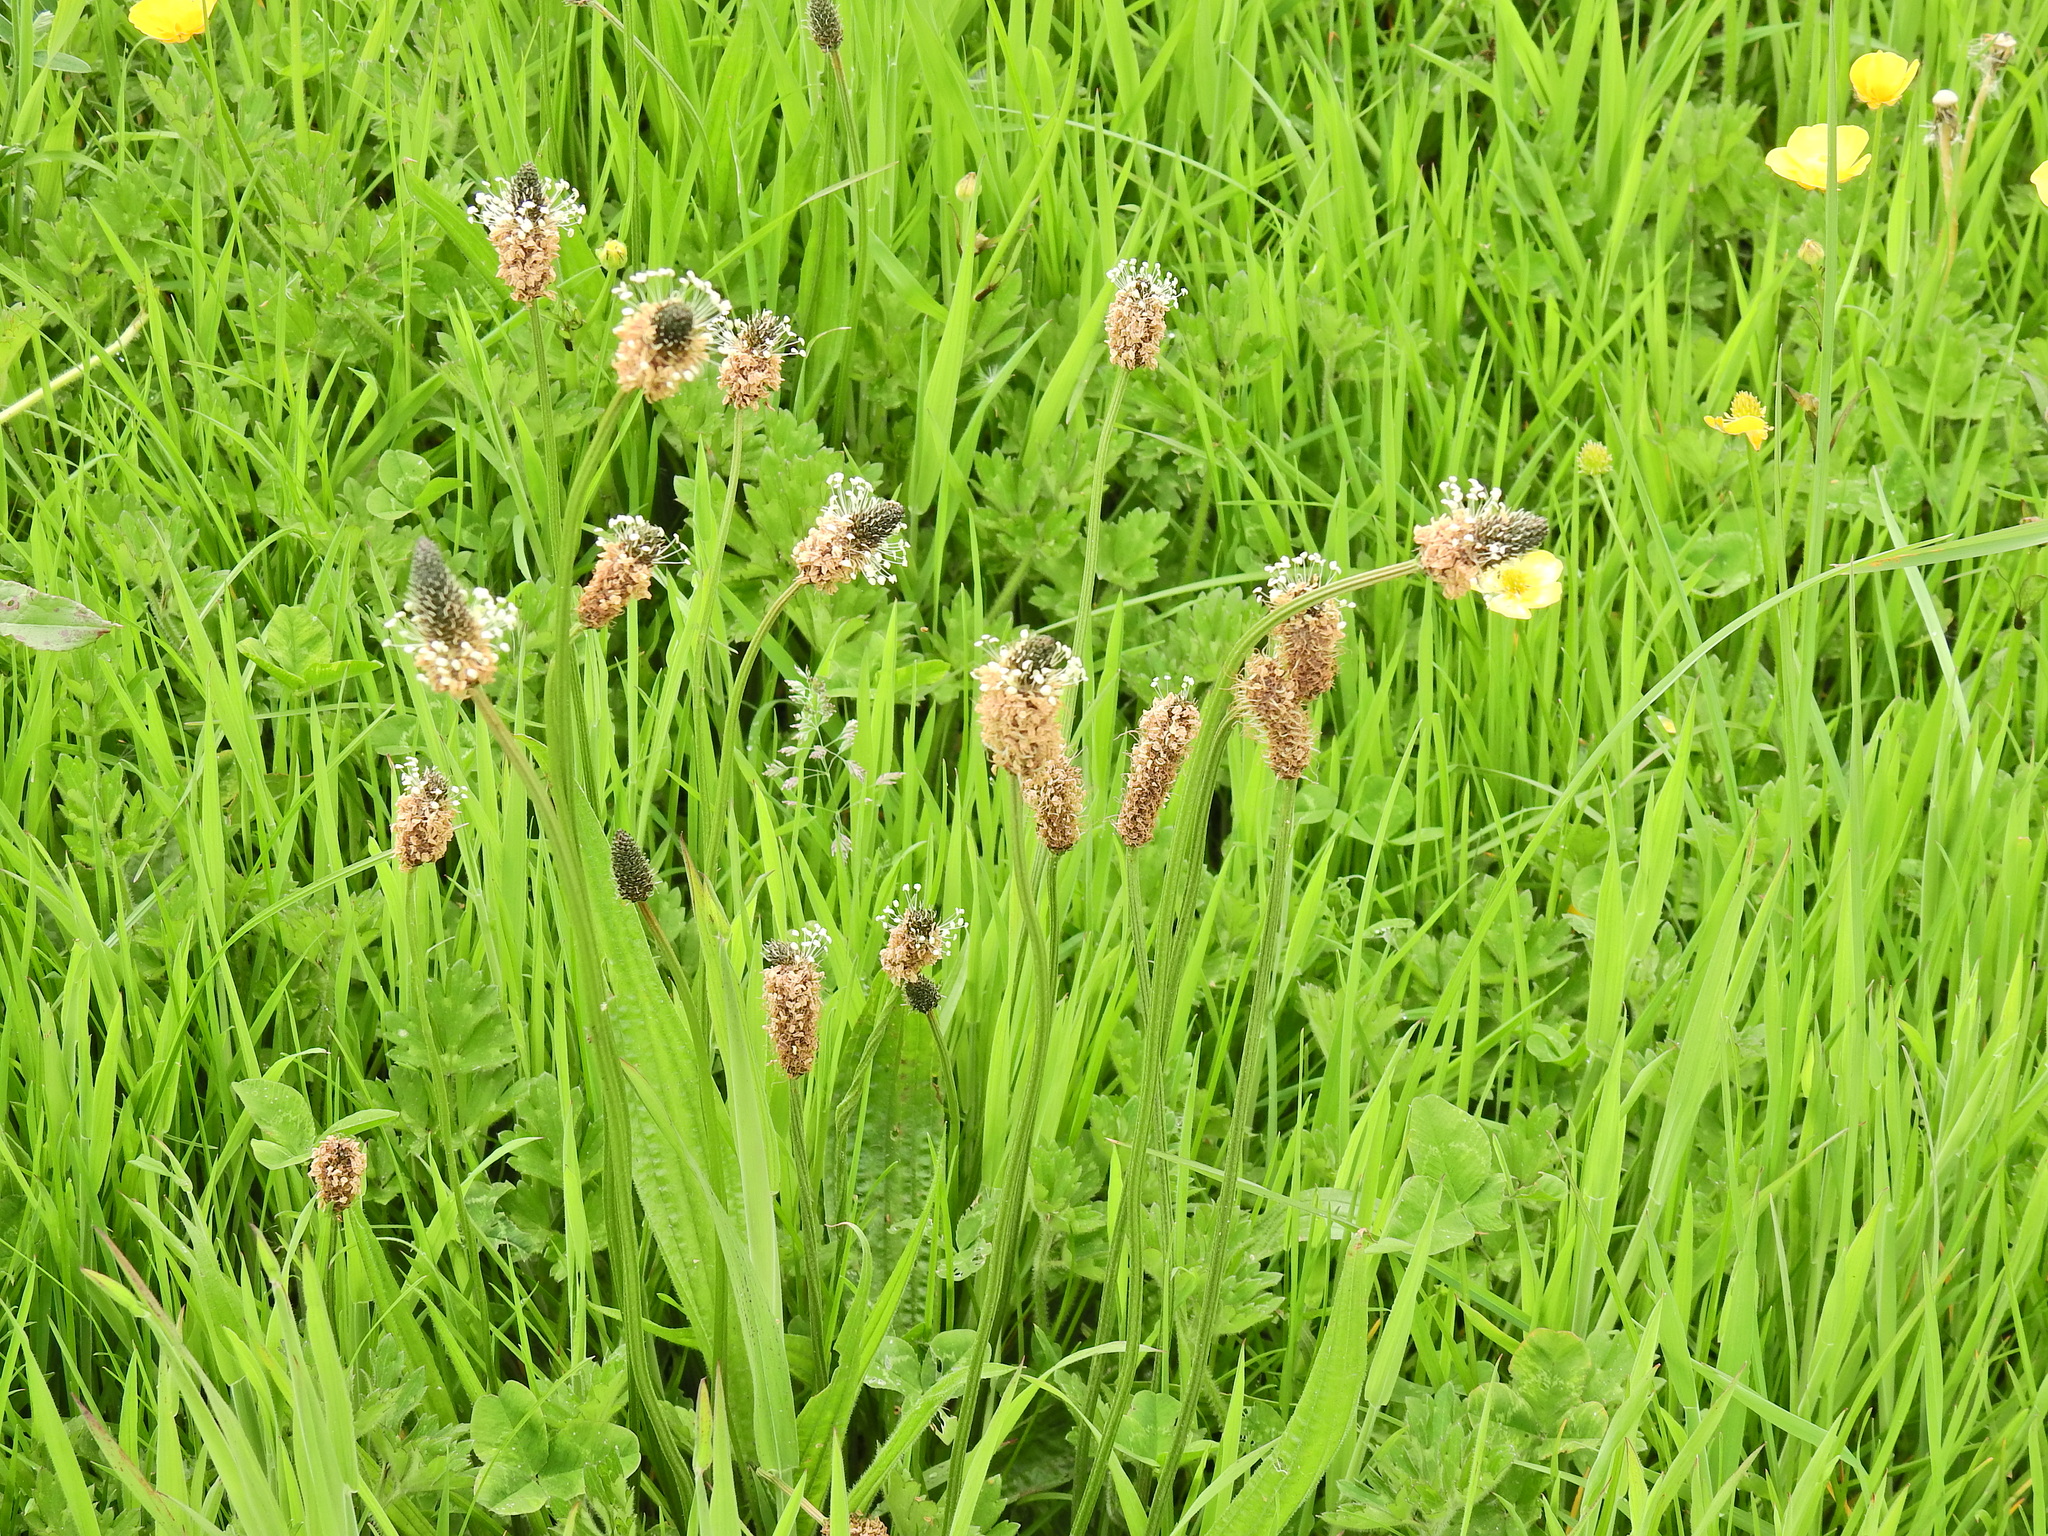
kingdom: Plantae
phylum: Tracheophyta
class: Magnoliopsida
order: Lamiales
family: Plantaginaceae
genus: Plantago
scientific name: Plantago lanceolata
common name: Ribwort plantain
